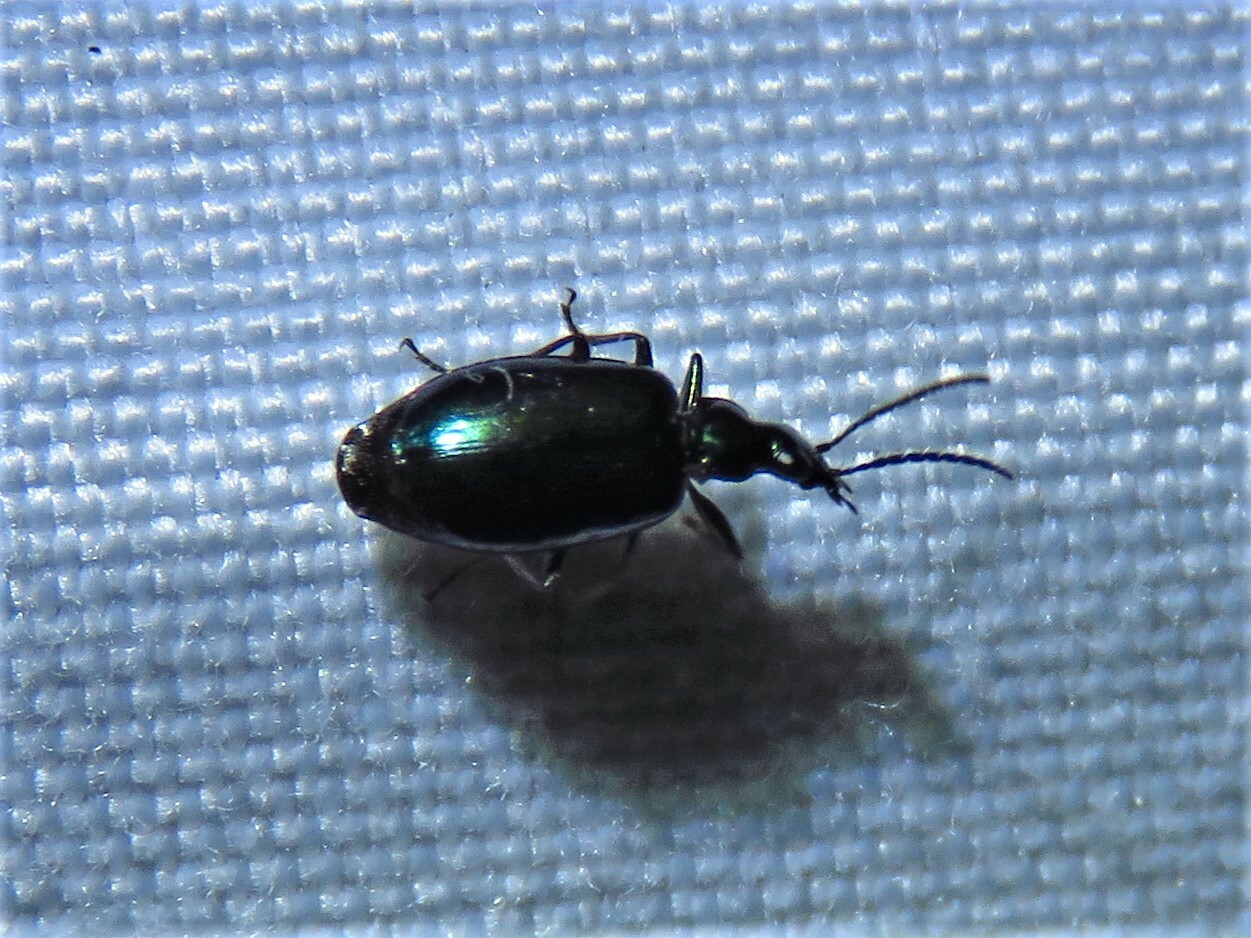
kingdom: Animalia
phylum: Arthropoda
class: Insecta
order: Coleoptera
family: Carabidae
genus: Lebia
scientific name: Lebia viridis
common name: Flower lebia beetle
